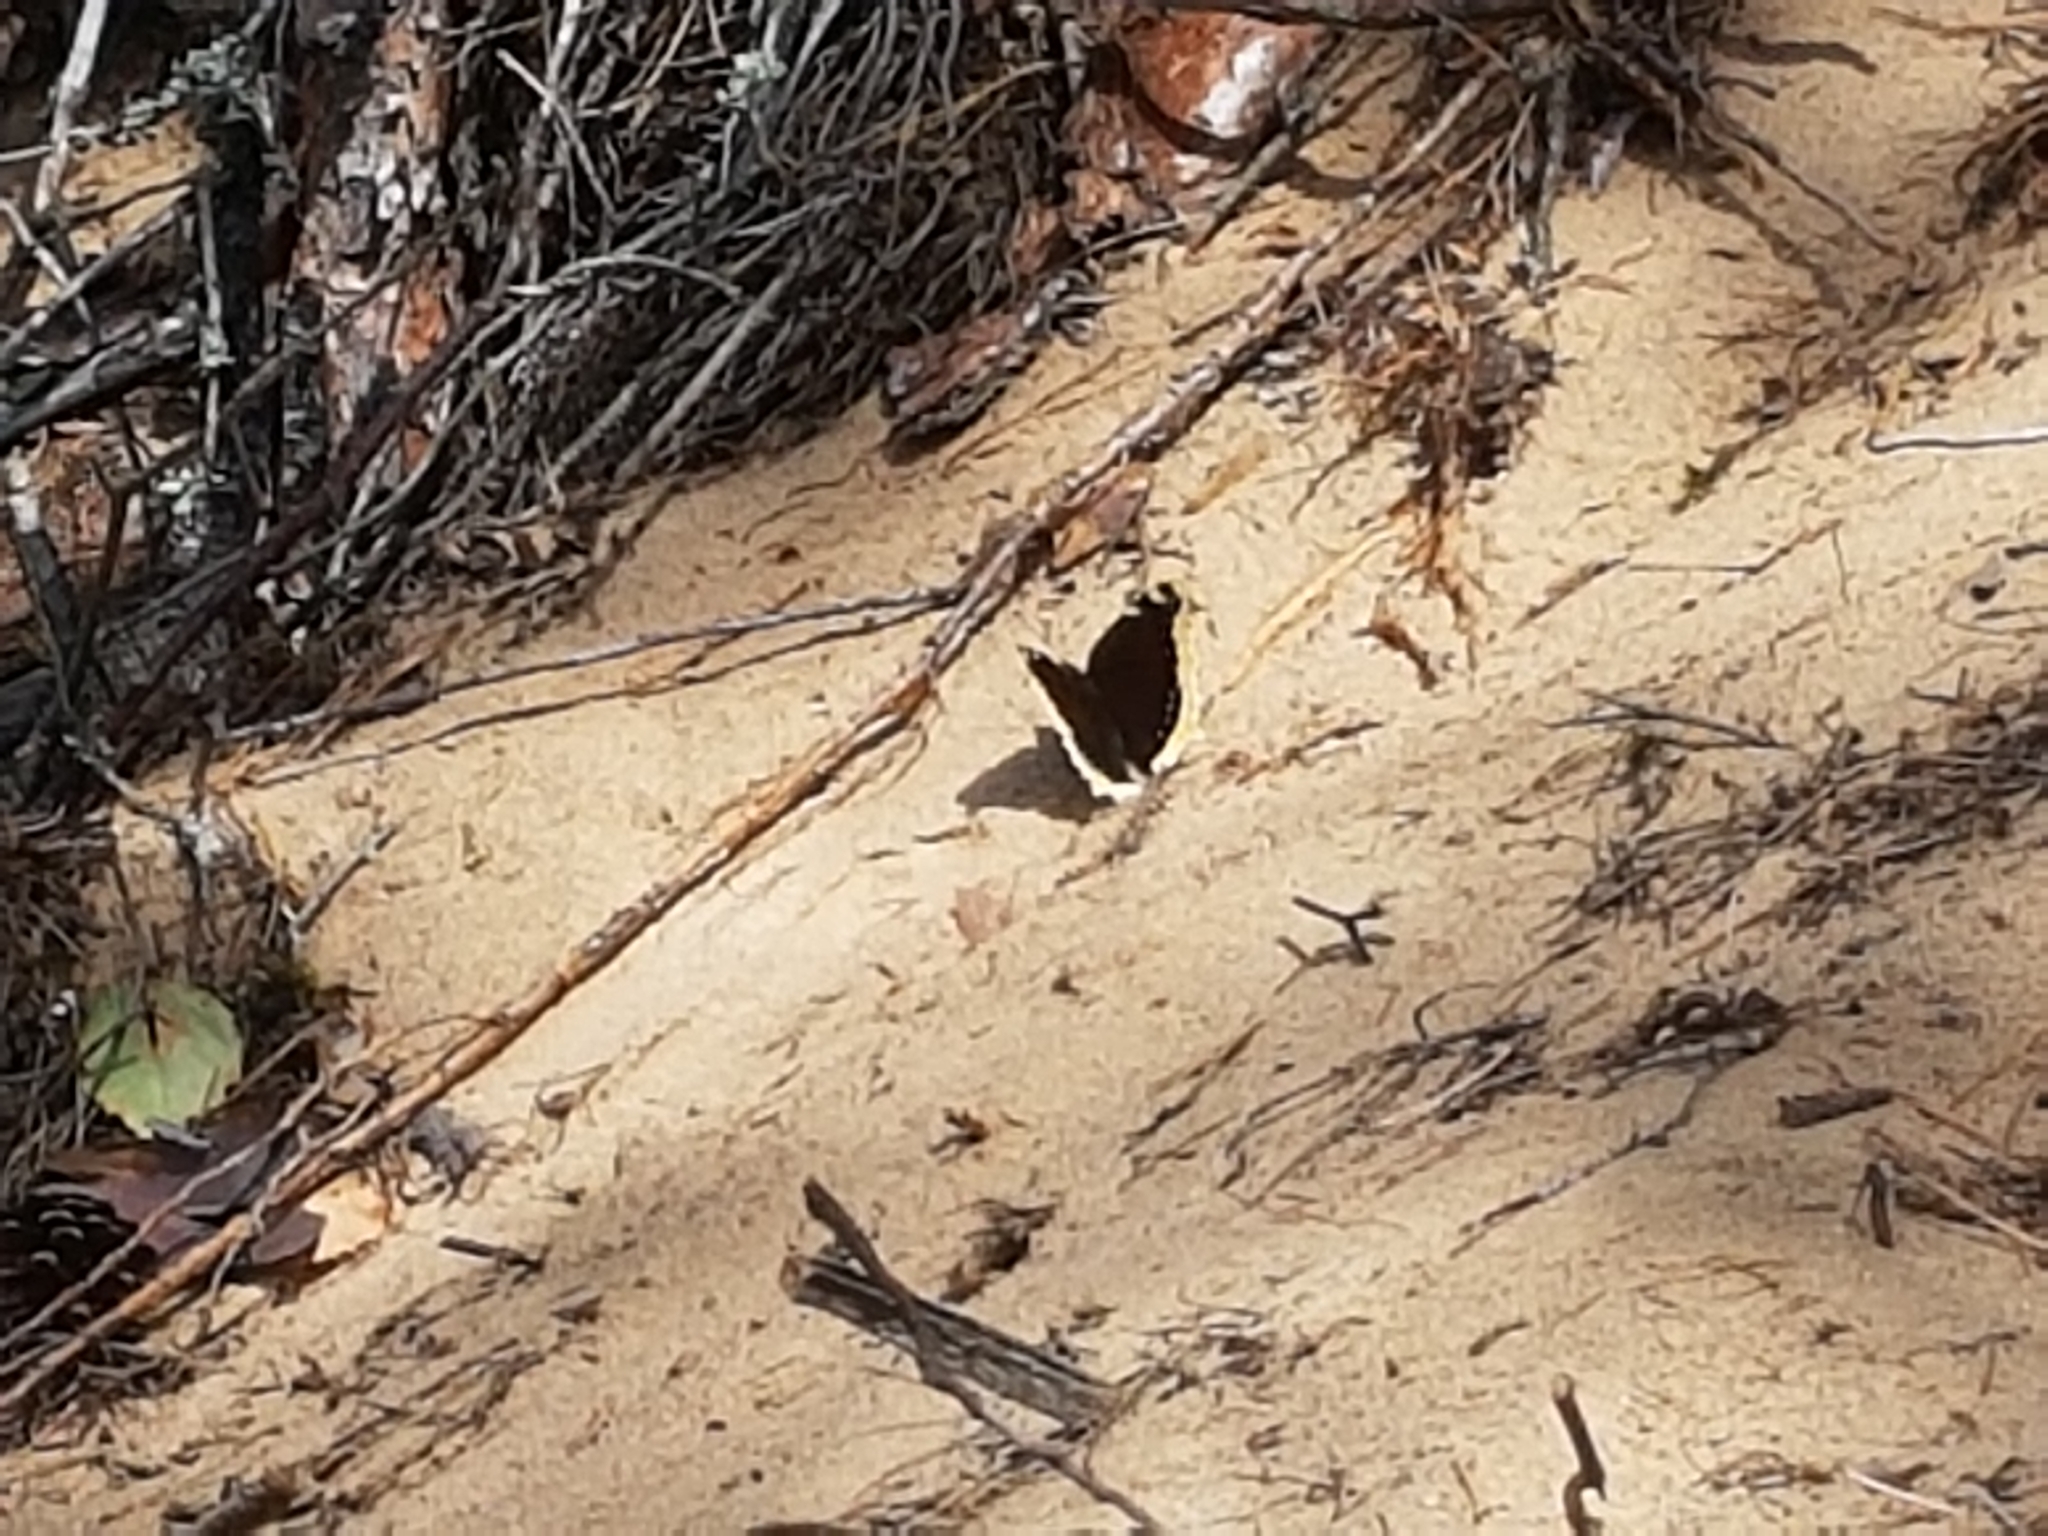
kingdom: Animalia
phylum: Arthropoda
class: Insecta
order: Lepidoptera
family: Nymphalidae
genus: Nymphalis
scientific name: Nymphalis antiopa
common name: Camberwell beauty
